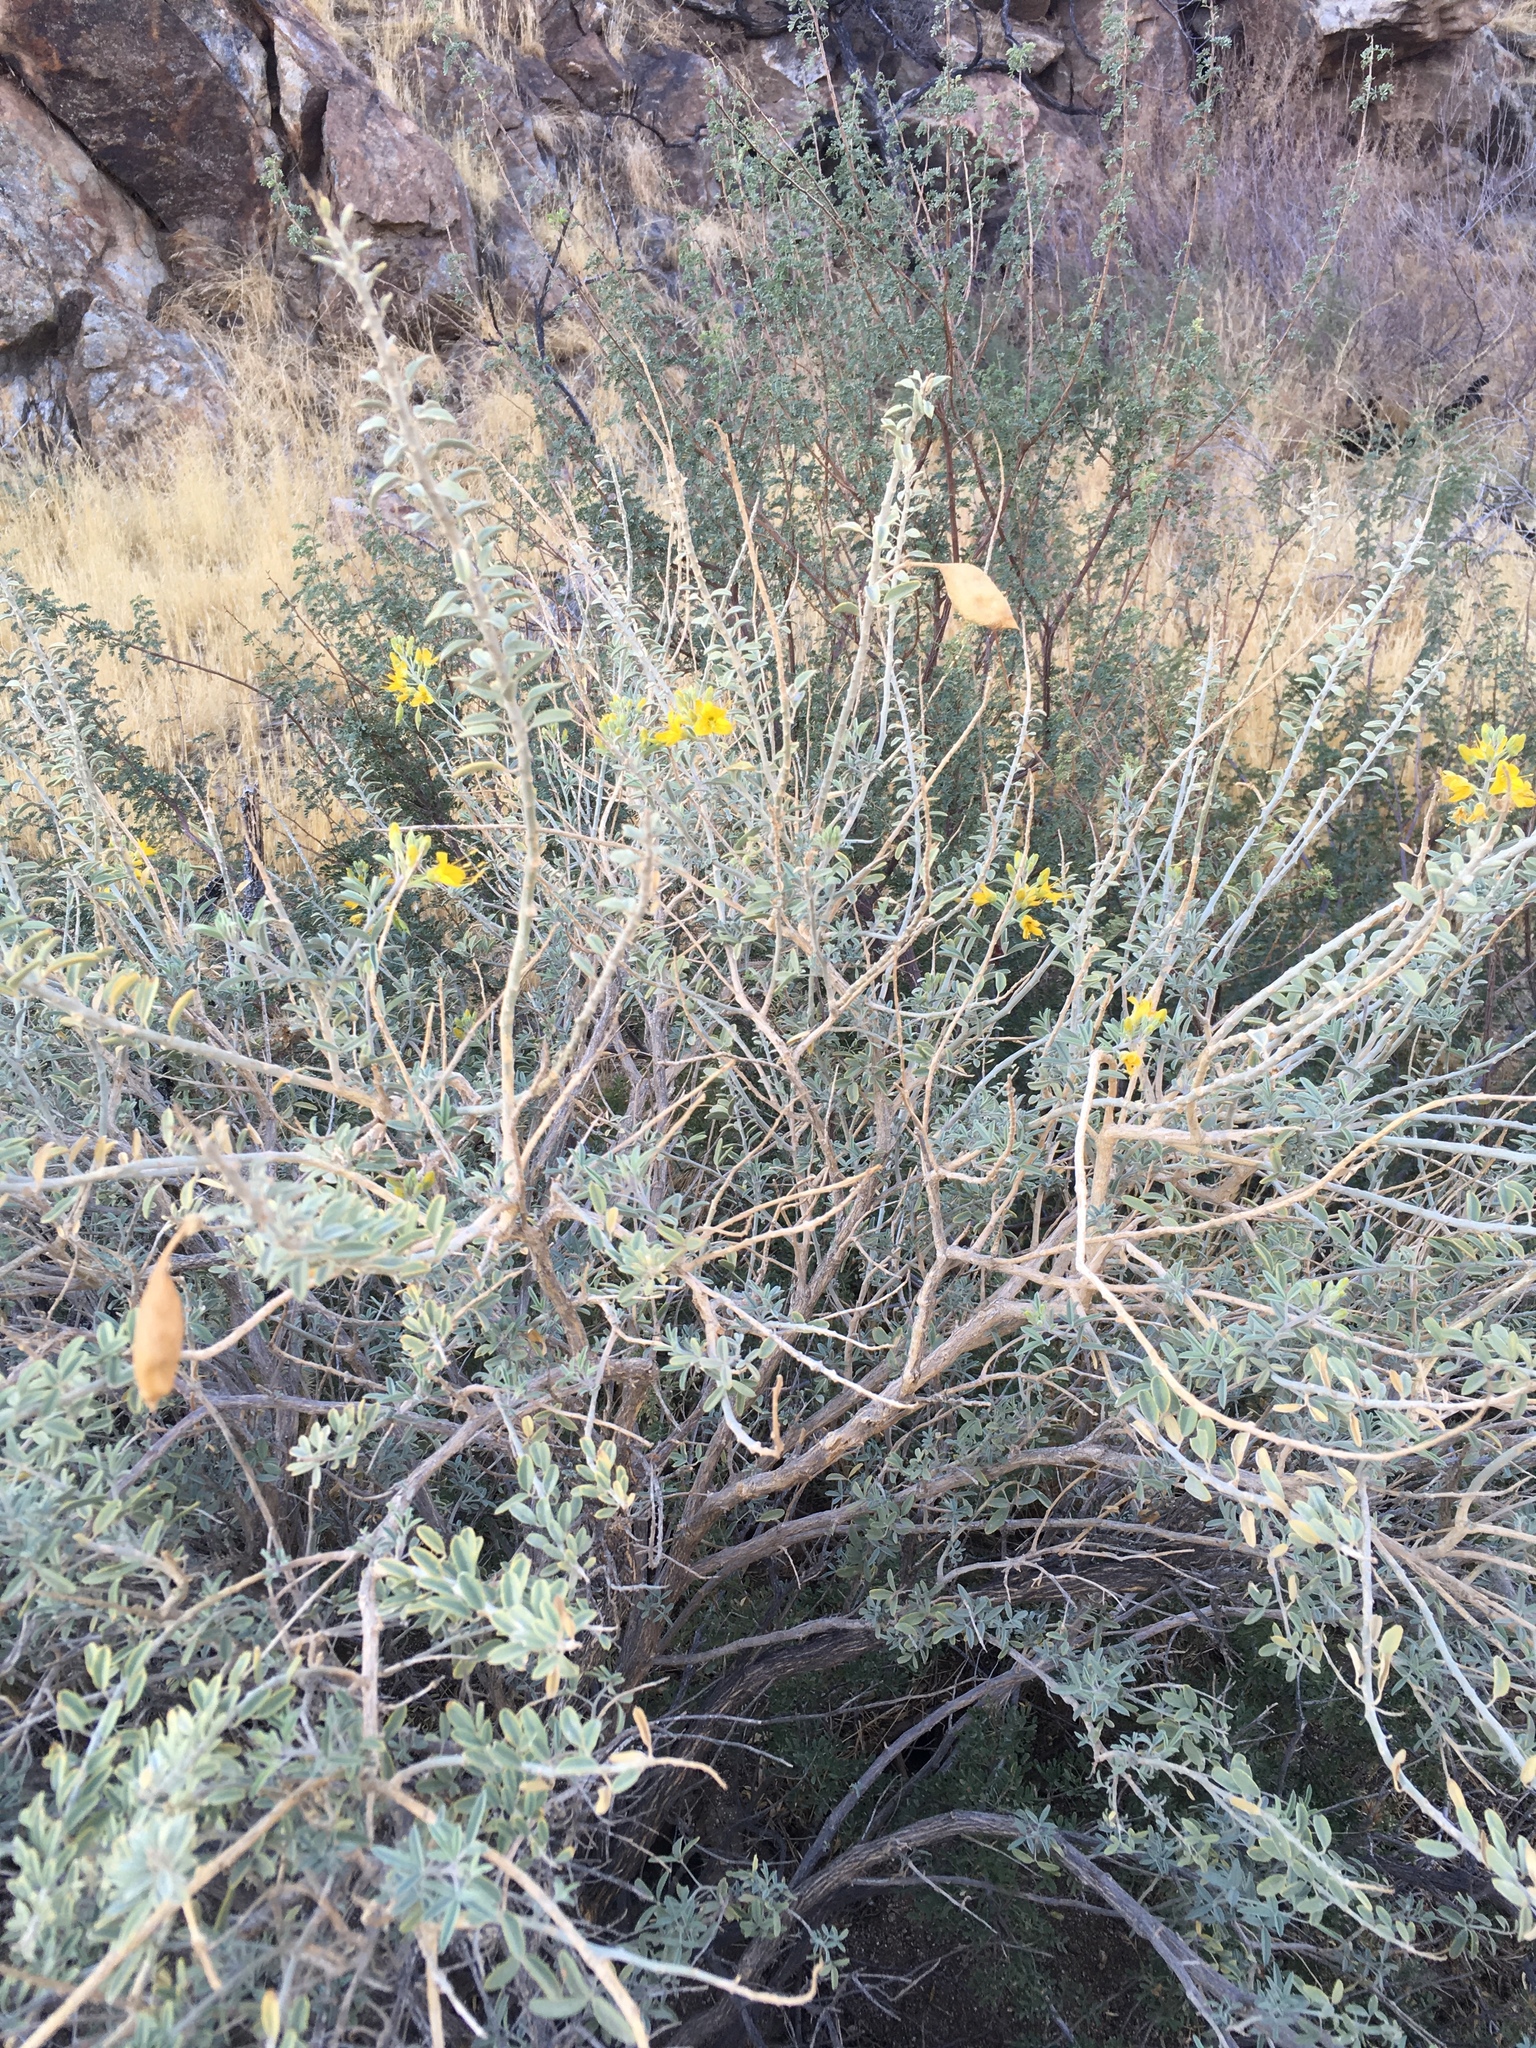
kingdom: Plantae
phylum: Tracheophyta
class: Magnoliopsida
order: Brassicales
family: Cleomaceae
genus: Cleomella
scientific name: Cleomella arborea
